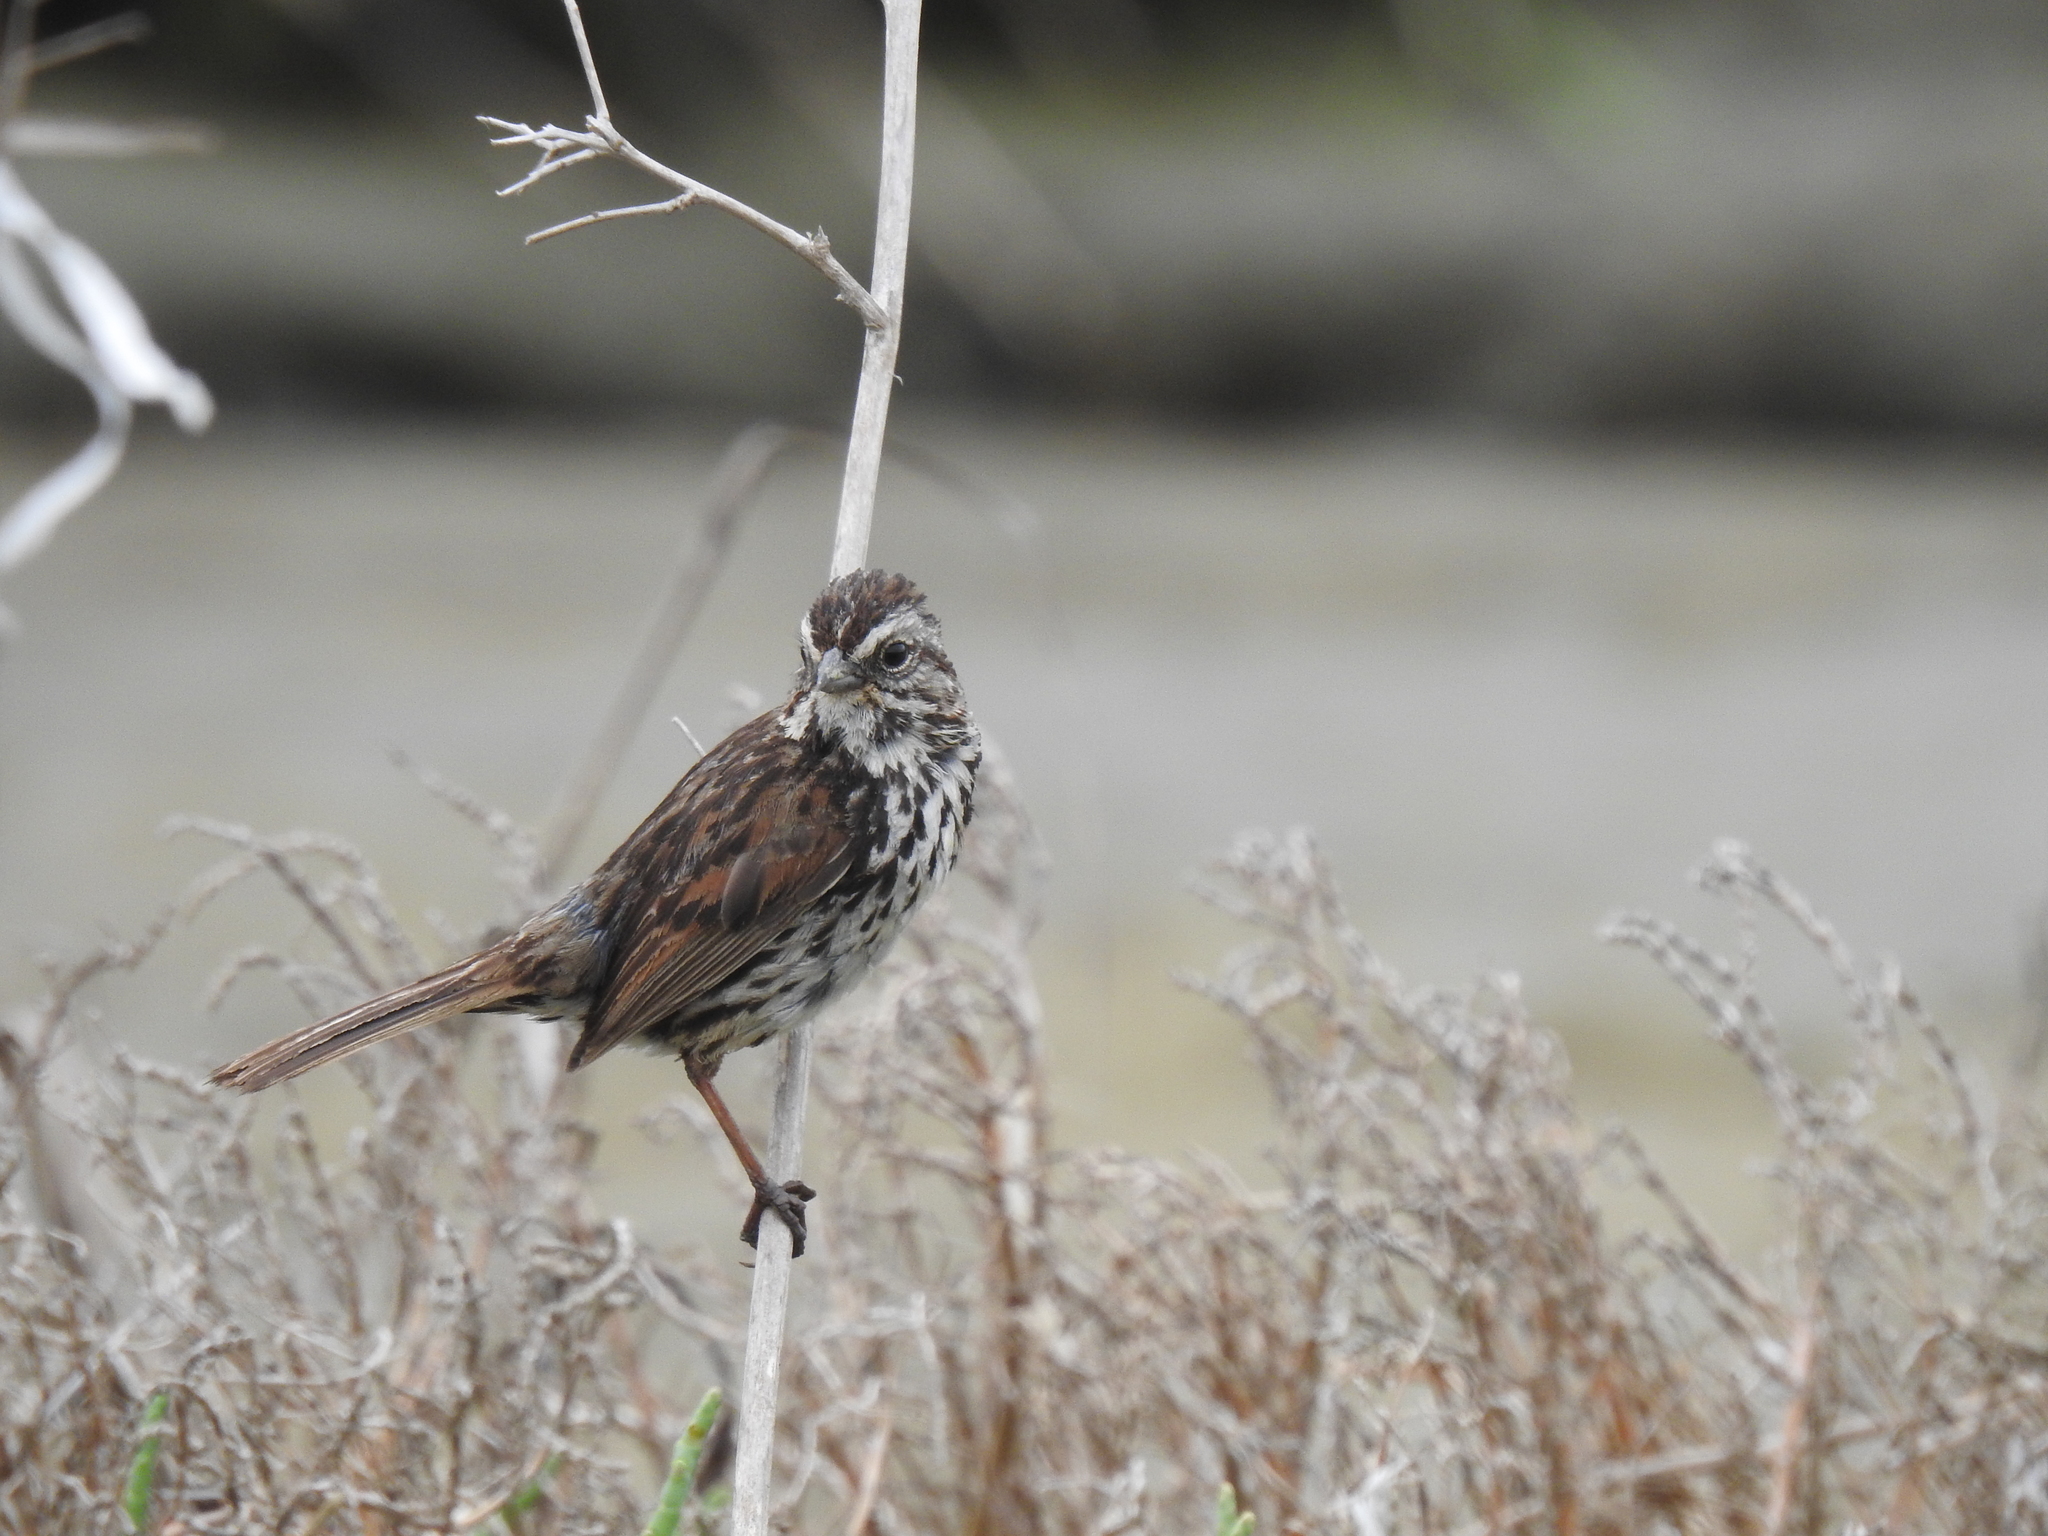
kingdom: Animalia
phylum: Chordata
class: Aves
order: Passeriformes
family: Passerellidae
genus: Melospiza
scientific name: Melospiza melodia
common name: Song sparrow
